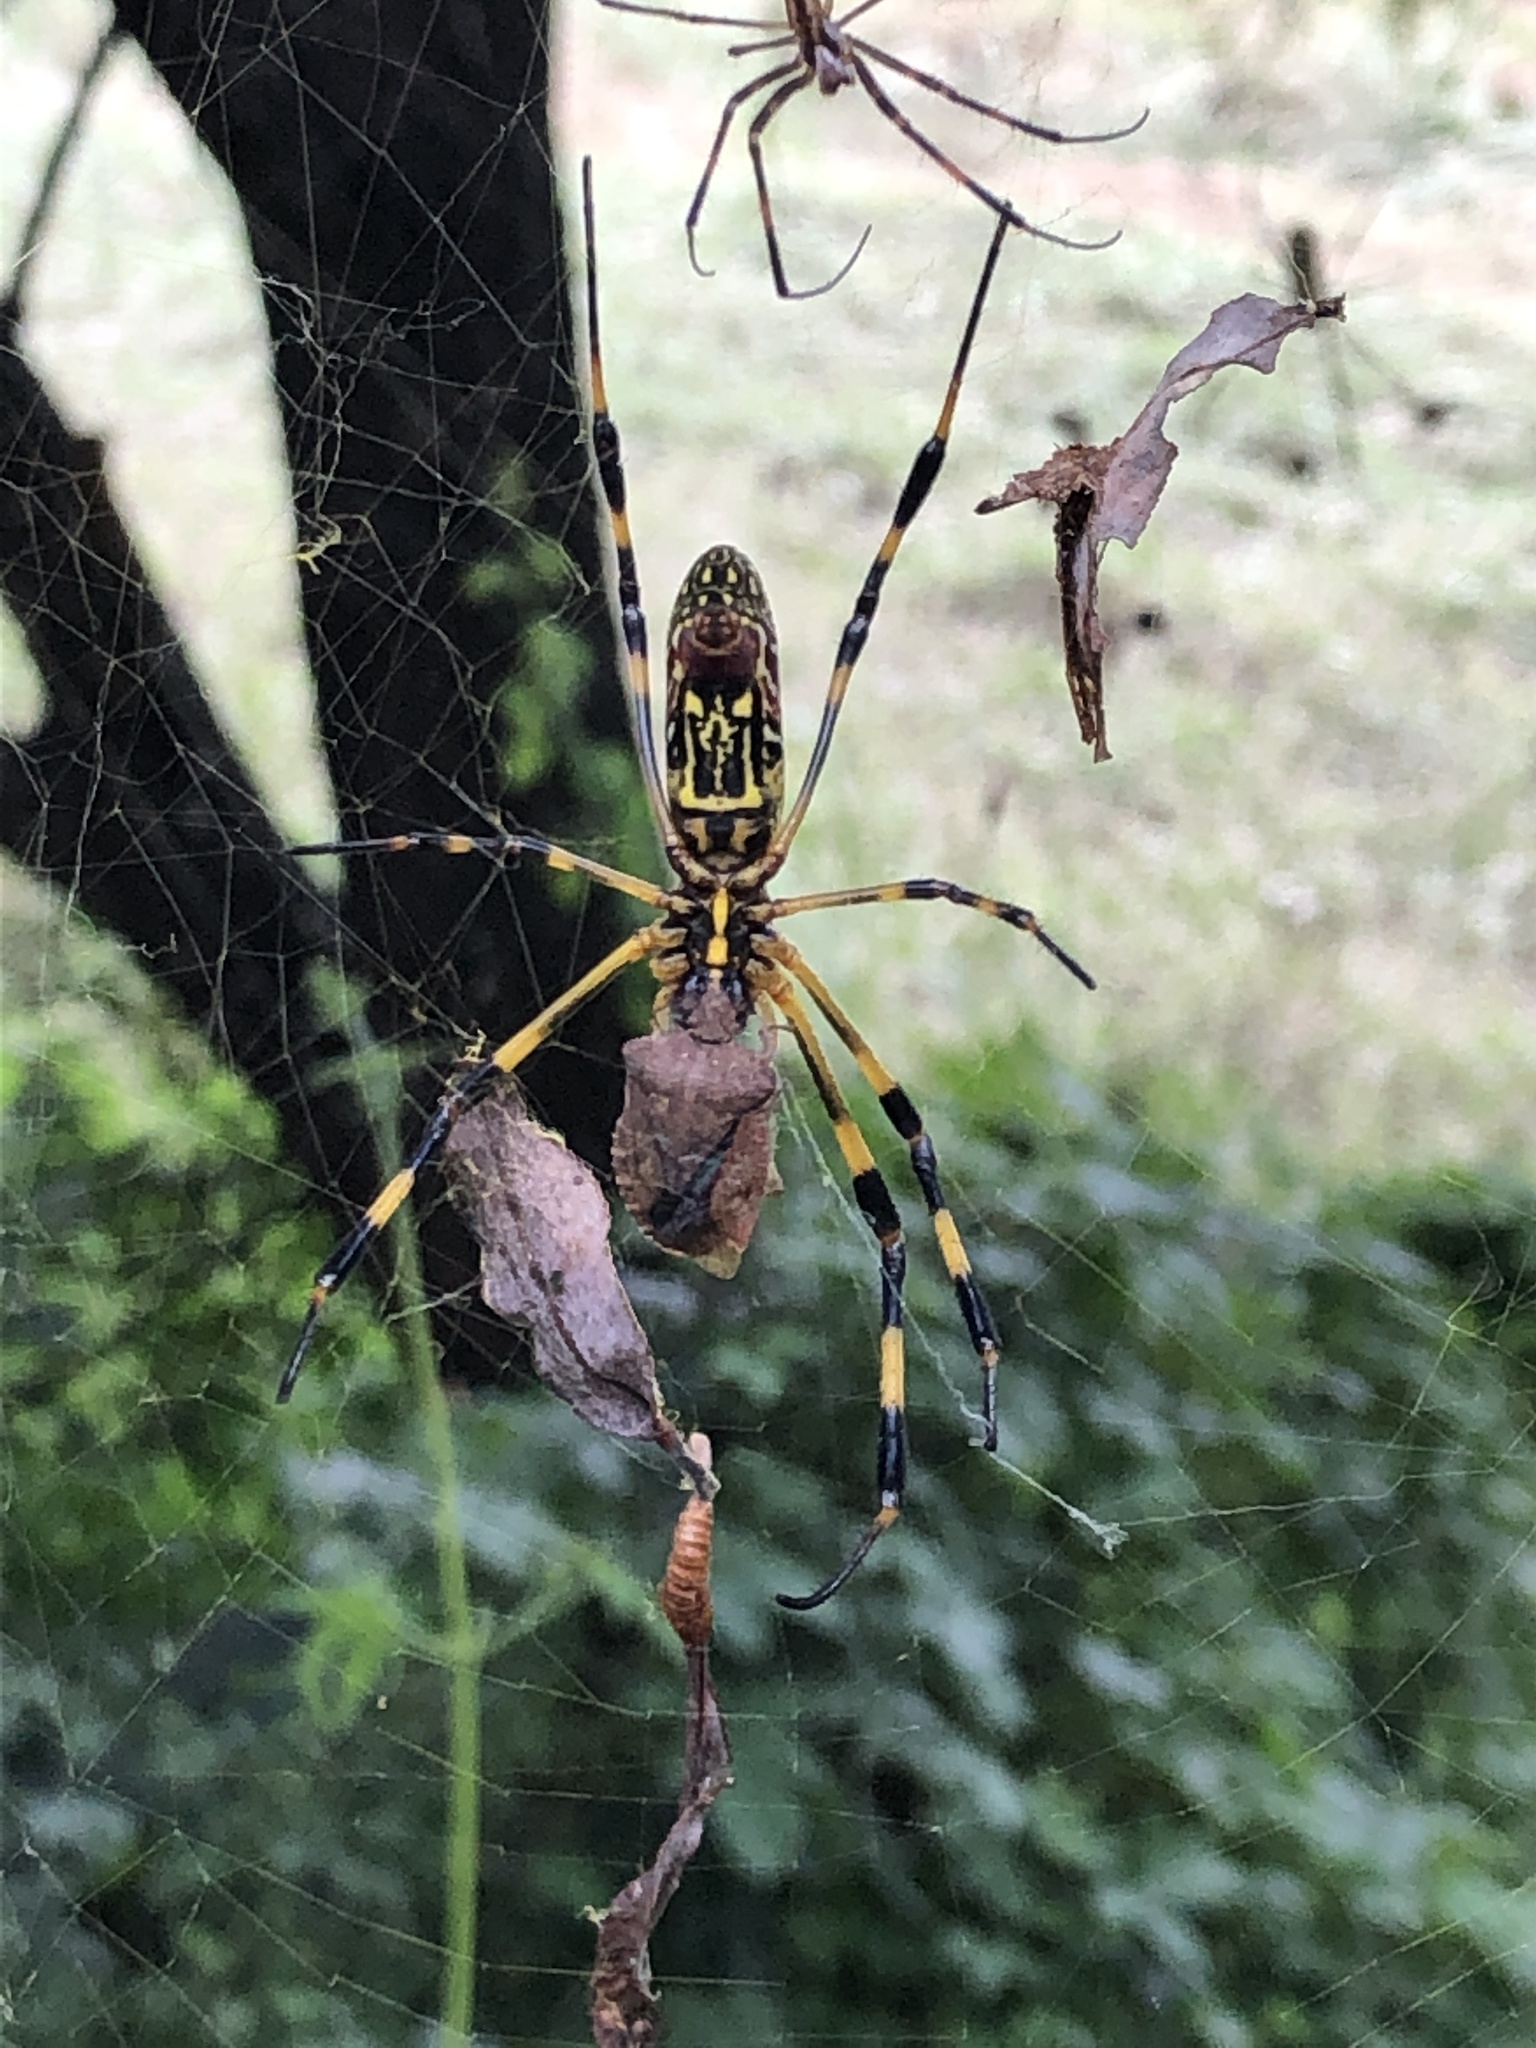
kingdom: Animalia
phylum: Arthropoda
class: Arachnida
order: Araneae
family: Araneidae
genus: Trichonephila
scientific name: Trichonephila clavata
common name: Jorō spider
